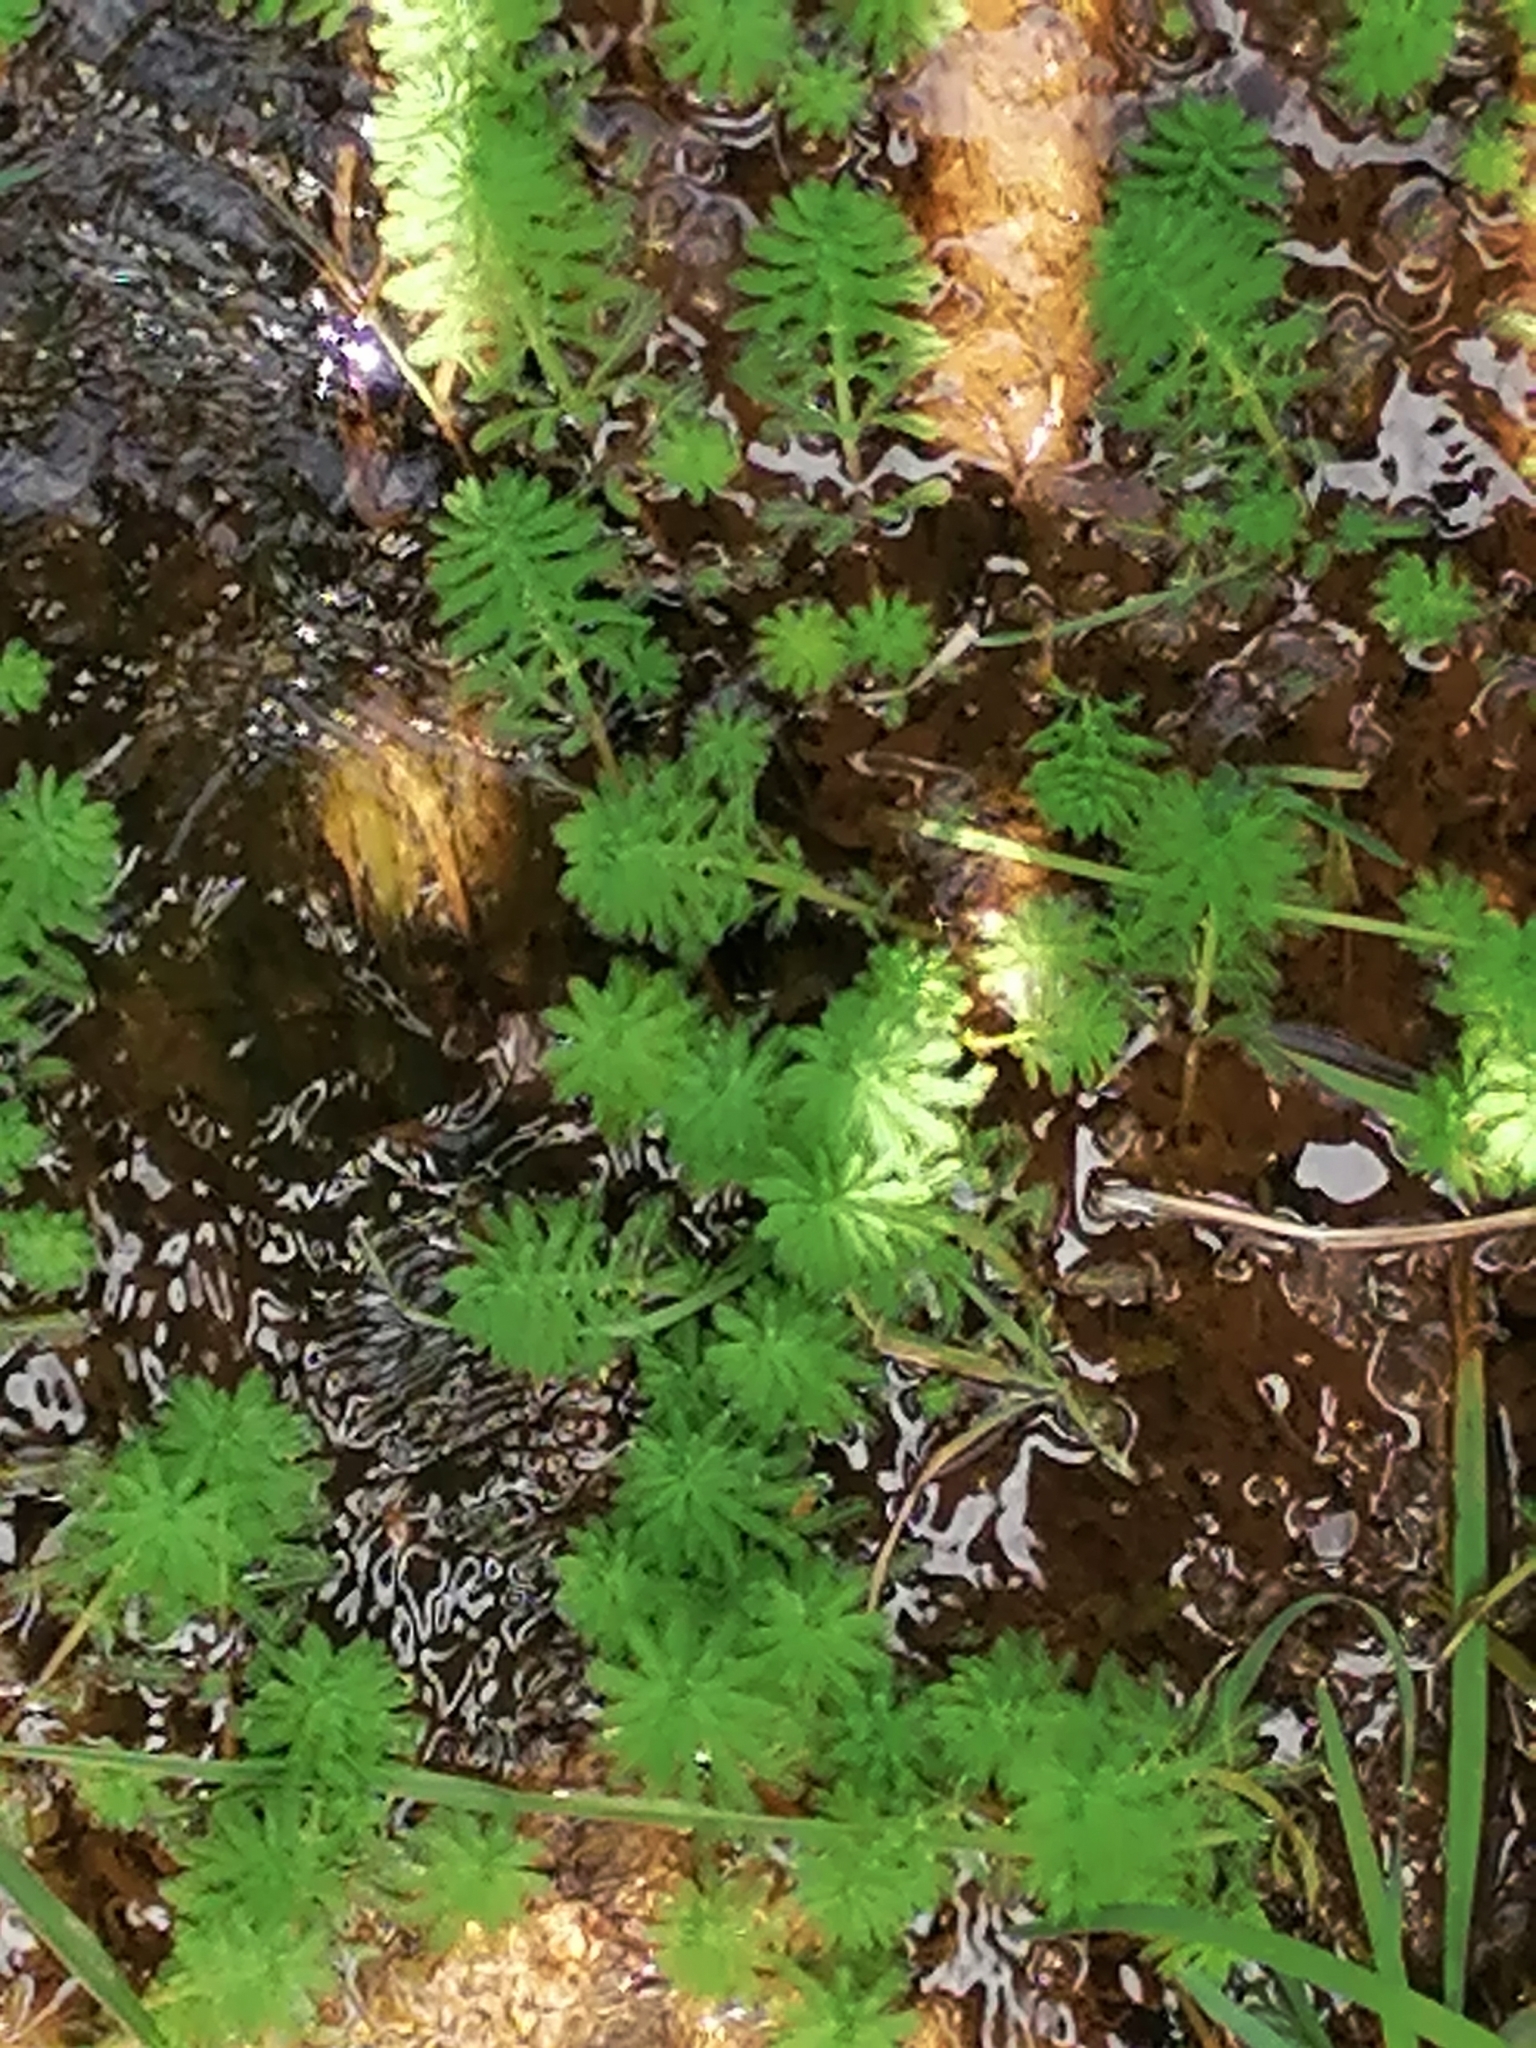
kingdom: Plantae
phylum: Tracheophyta
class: Magnoliopsida
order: Saxifragales
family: Haloragaceae
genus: Myriophyllum
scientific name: Myriophyllum aquaticum
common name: Parrot's feather
